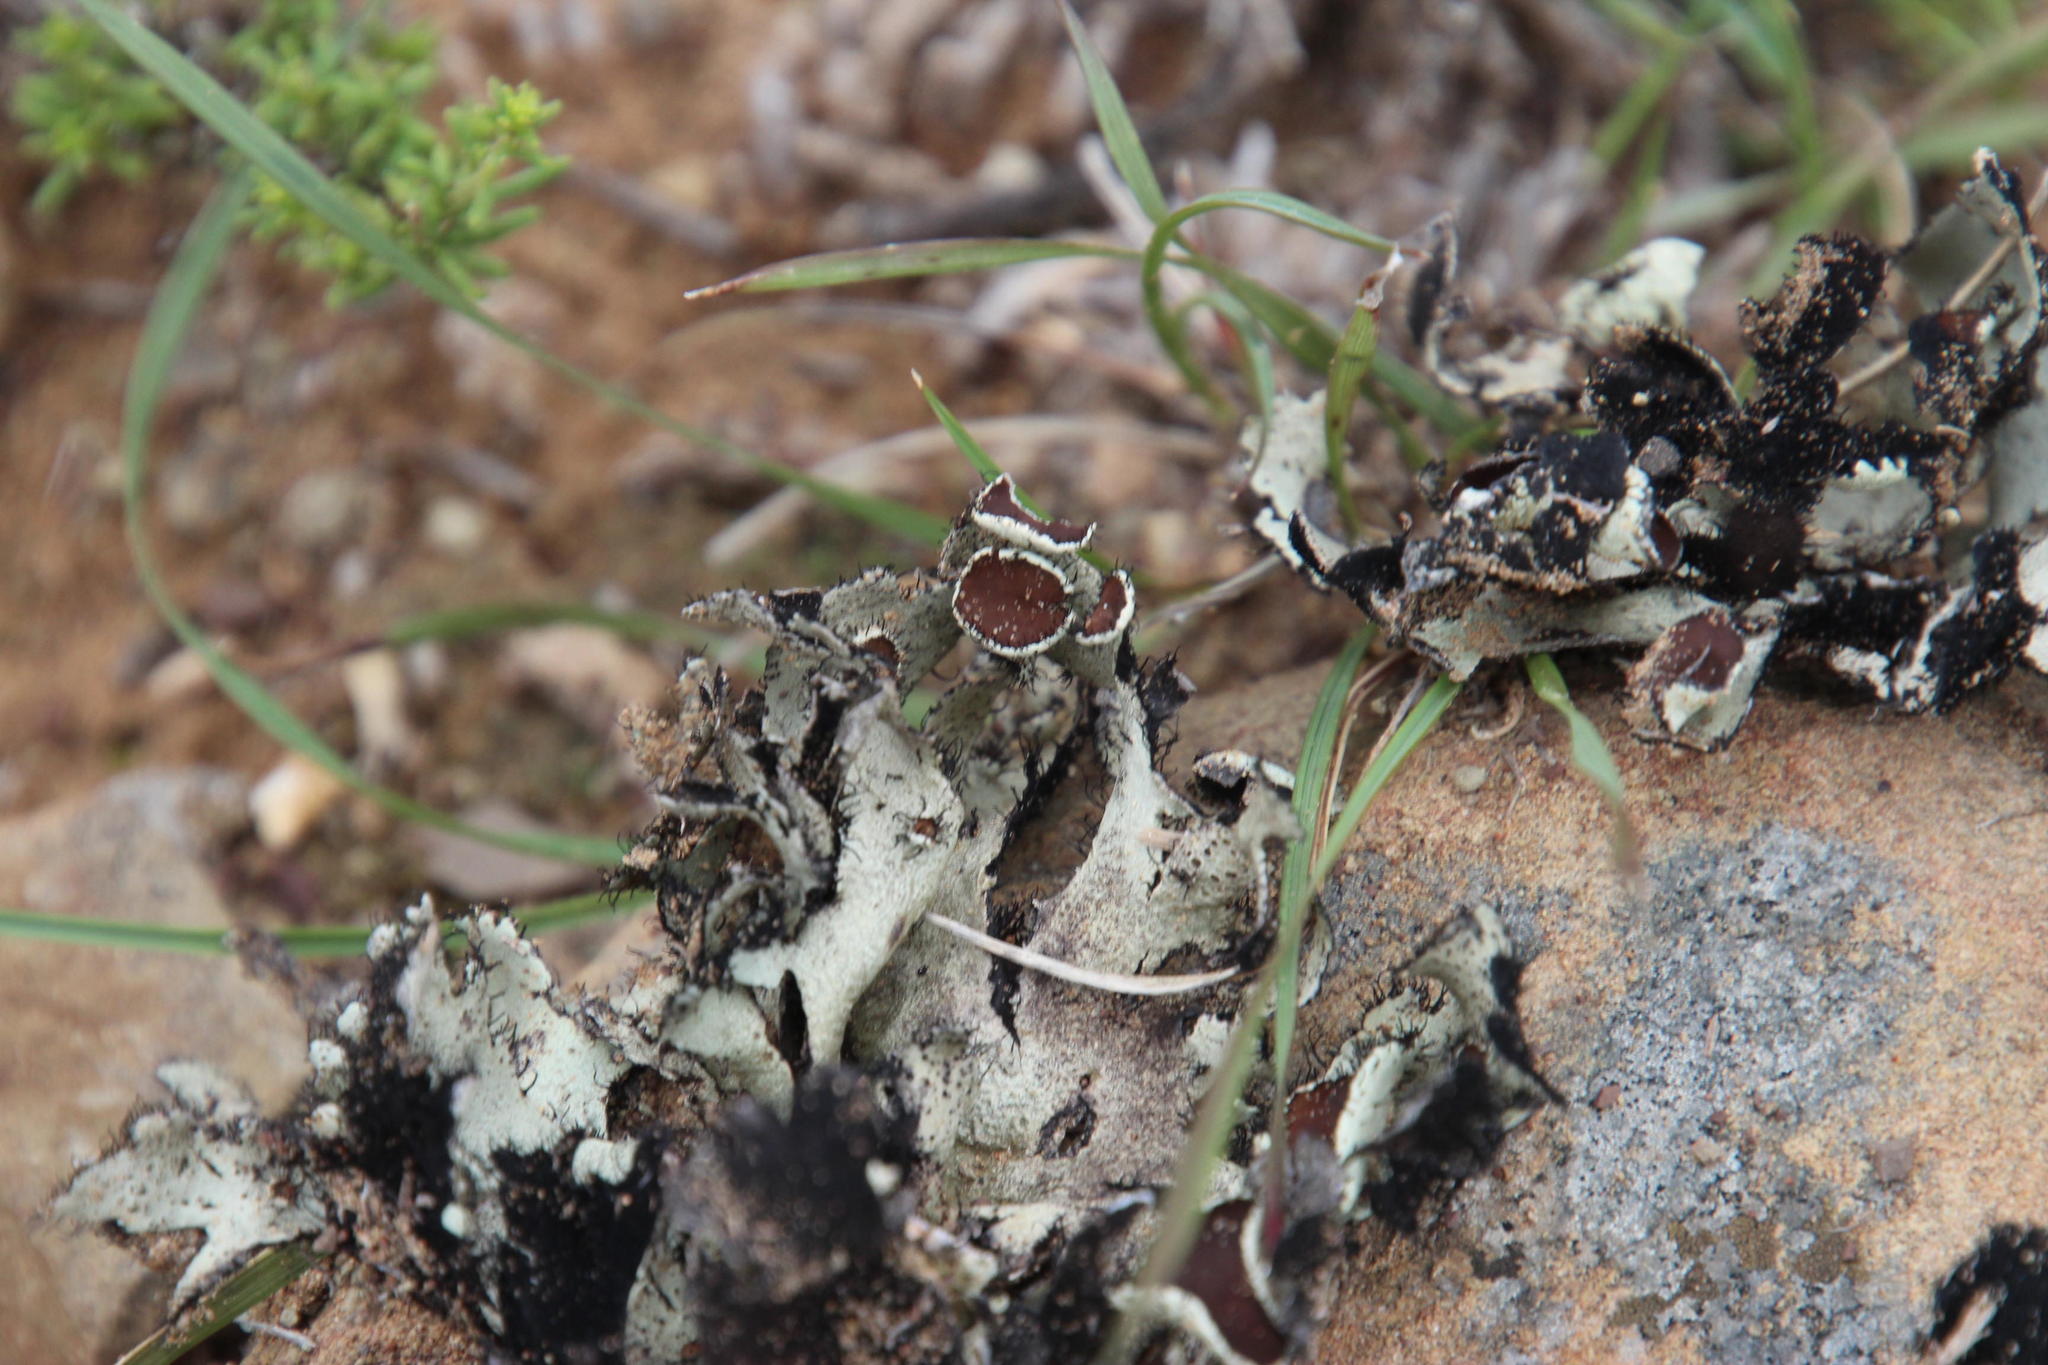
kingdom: Fungi
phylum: Ascomycota
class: Lecanoromycetes
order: Lecanorales
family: Parmeliaceae
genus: Xanthoparmelia
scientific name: Xanthoparmelia hottentotta
